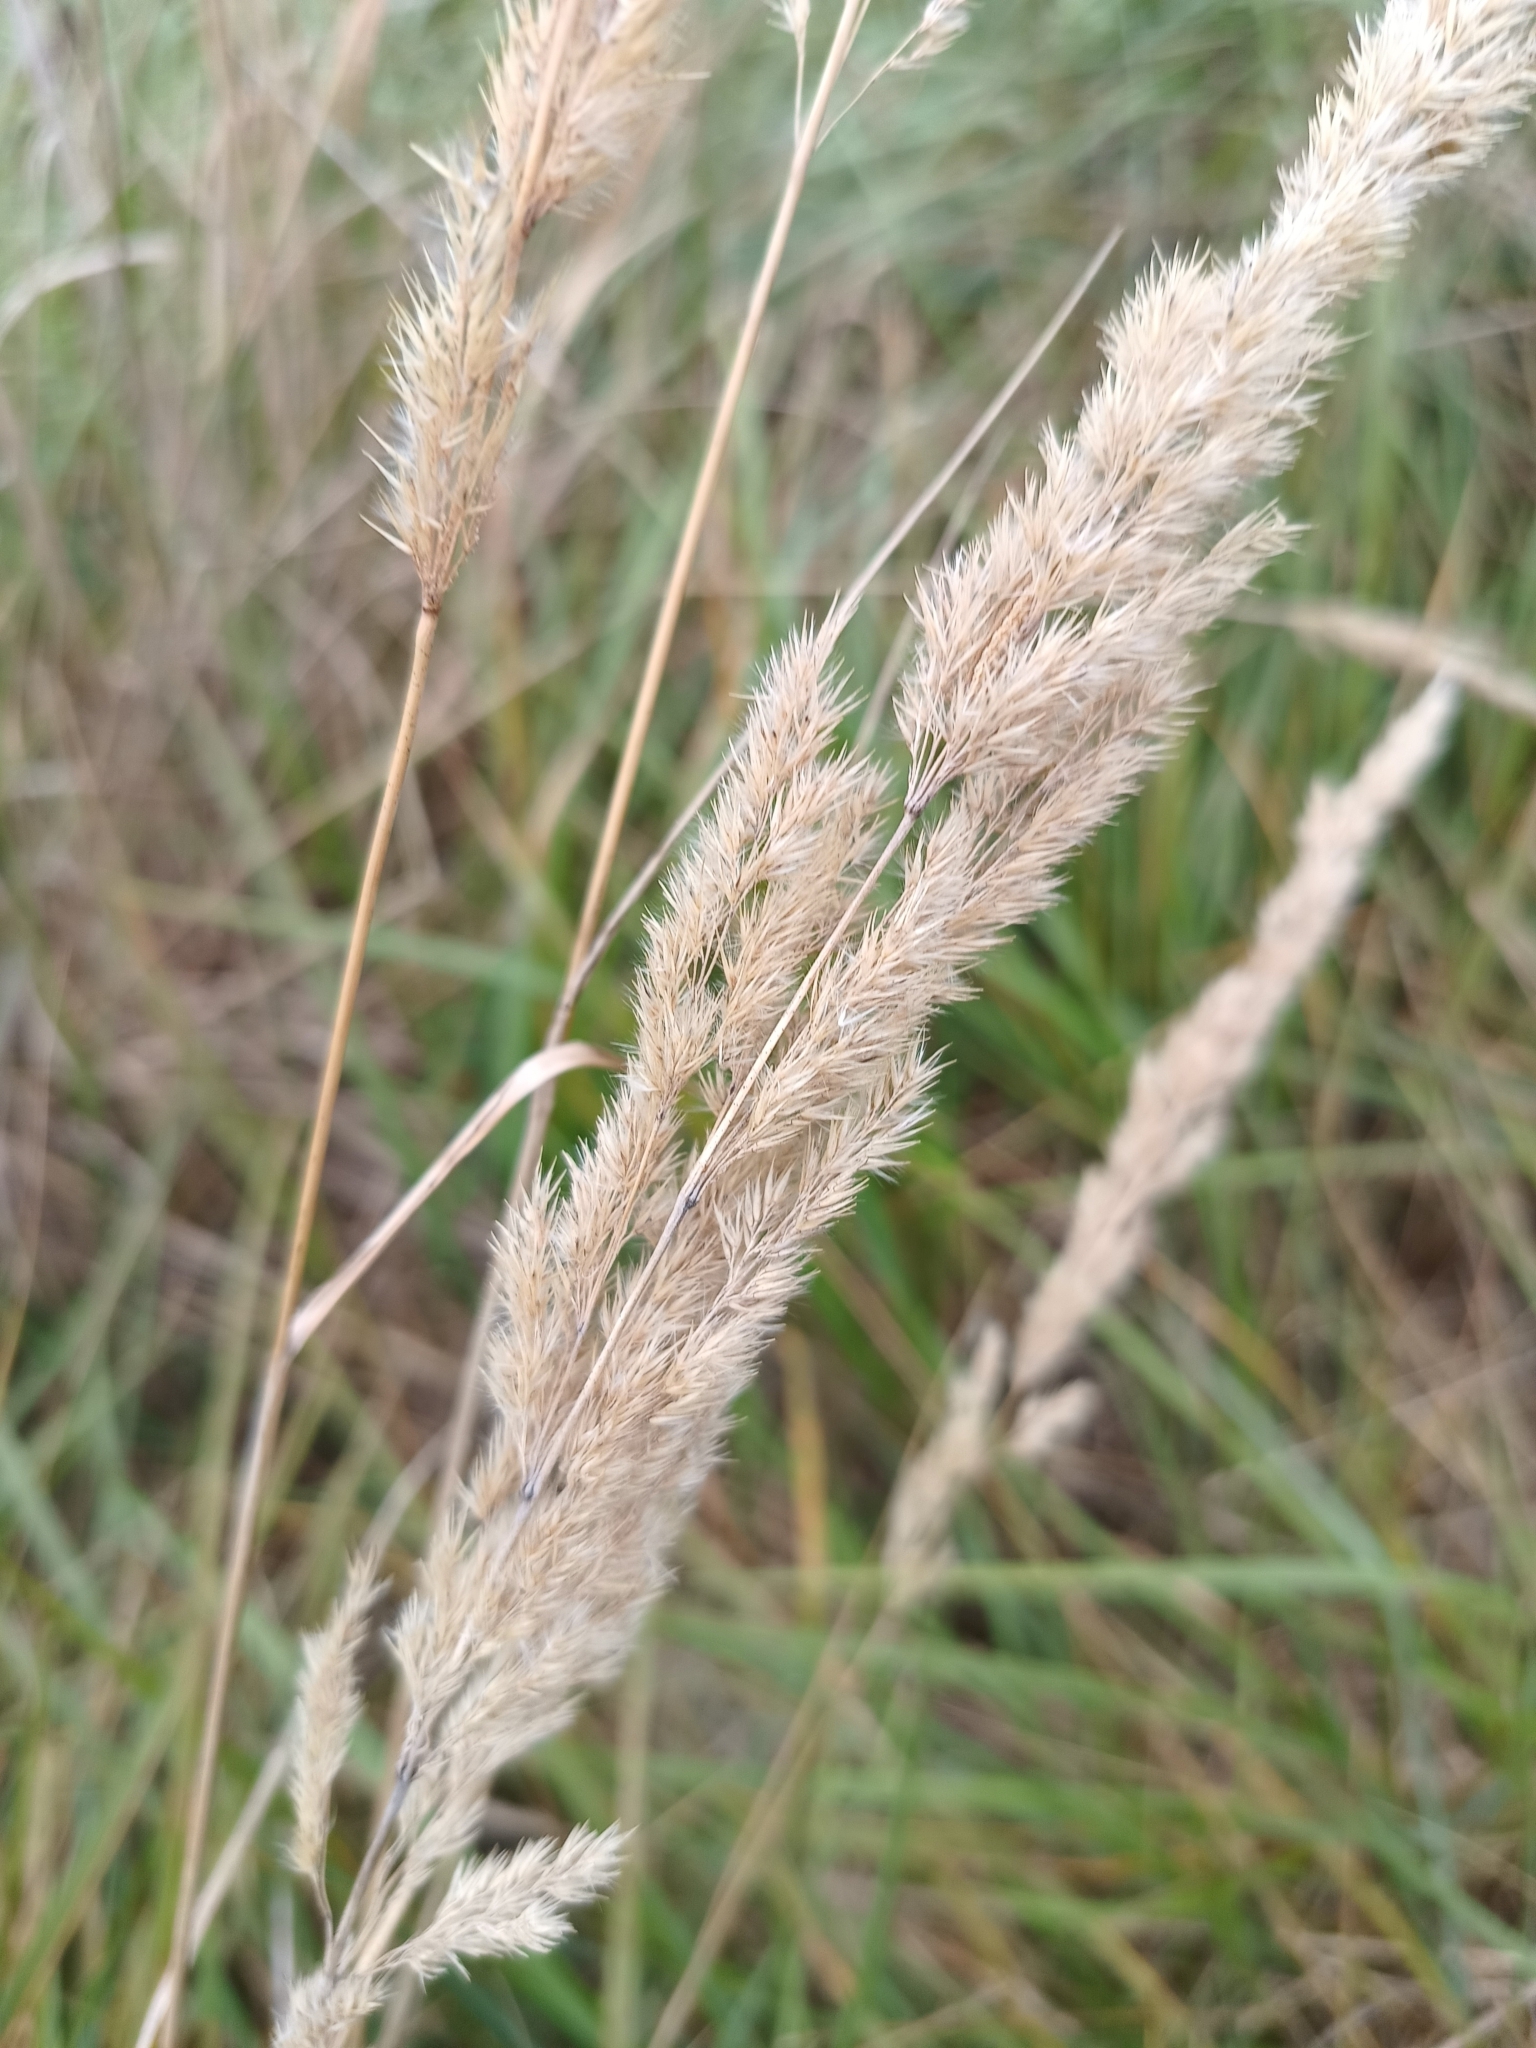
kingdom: Plantae
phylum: Tracheophyta
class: Liliopsida
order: Poales
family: Poaceae
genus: Calamagrostis
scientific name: Calamagrostis epigejos
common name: Wood small-reed
